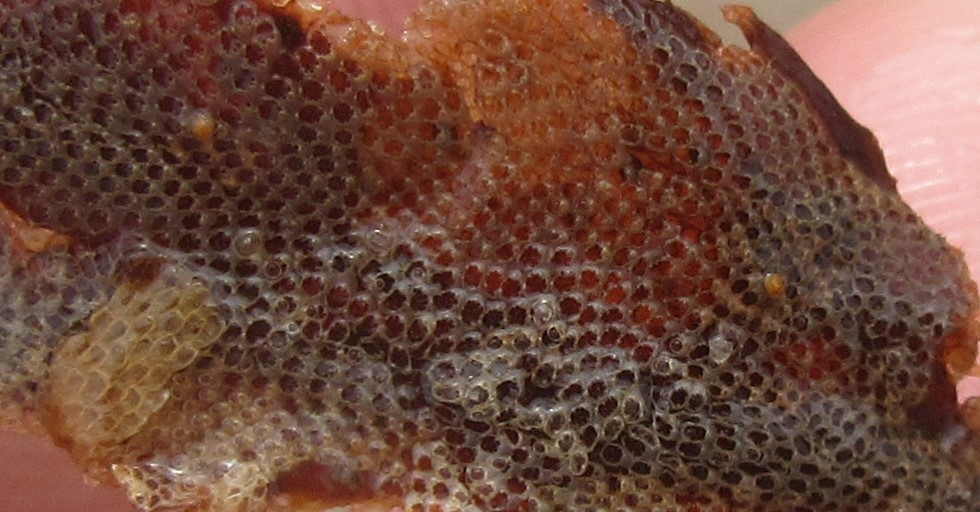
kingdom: Animalia
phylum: Bryozoa
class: Gymnolaemata
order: Cheilostomatida
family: Electridae
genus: Electra
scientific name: Electra pilosa
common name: Hairy sea-mat
